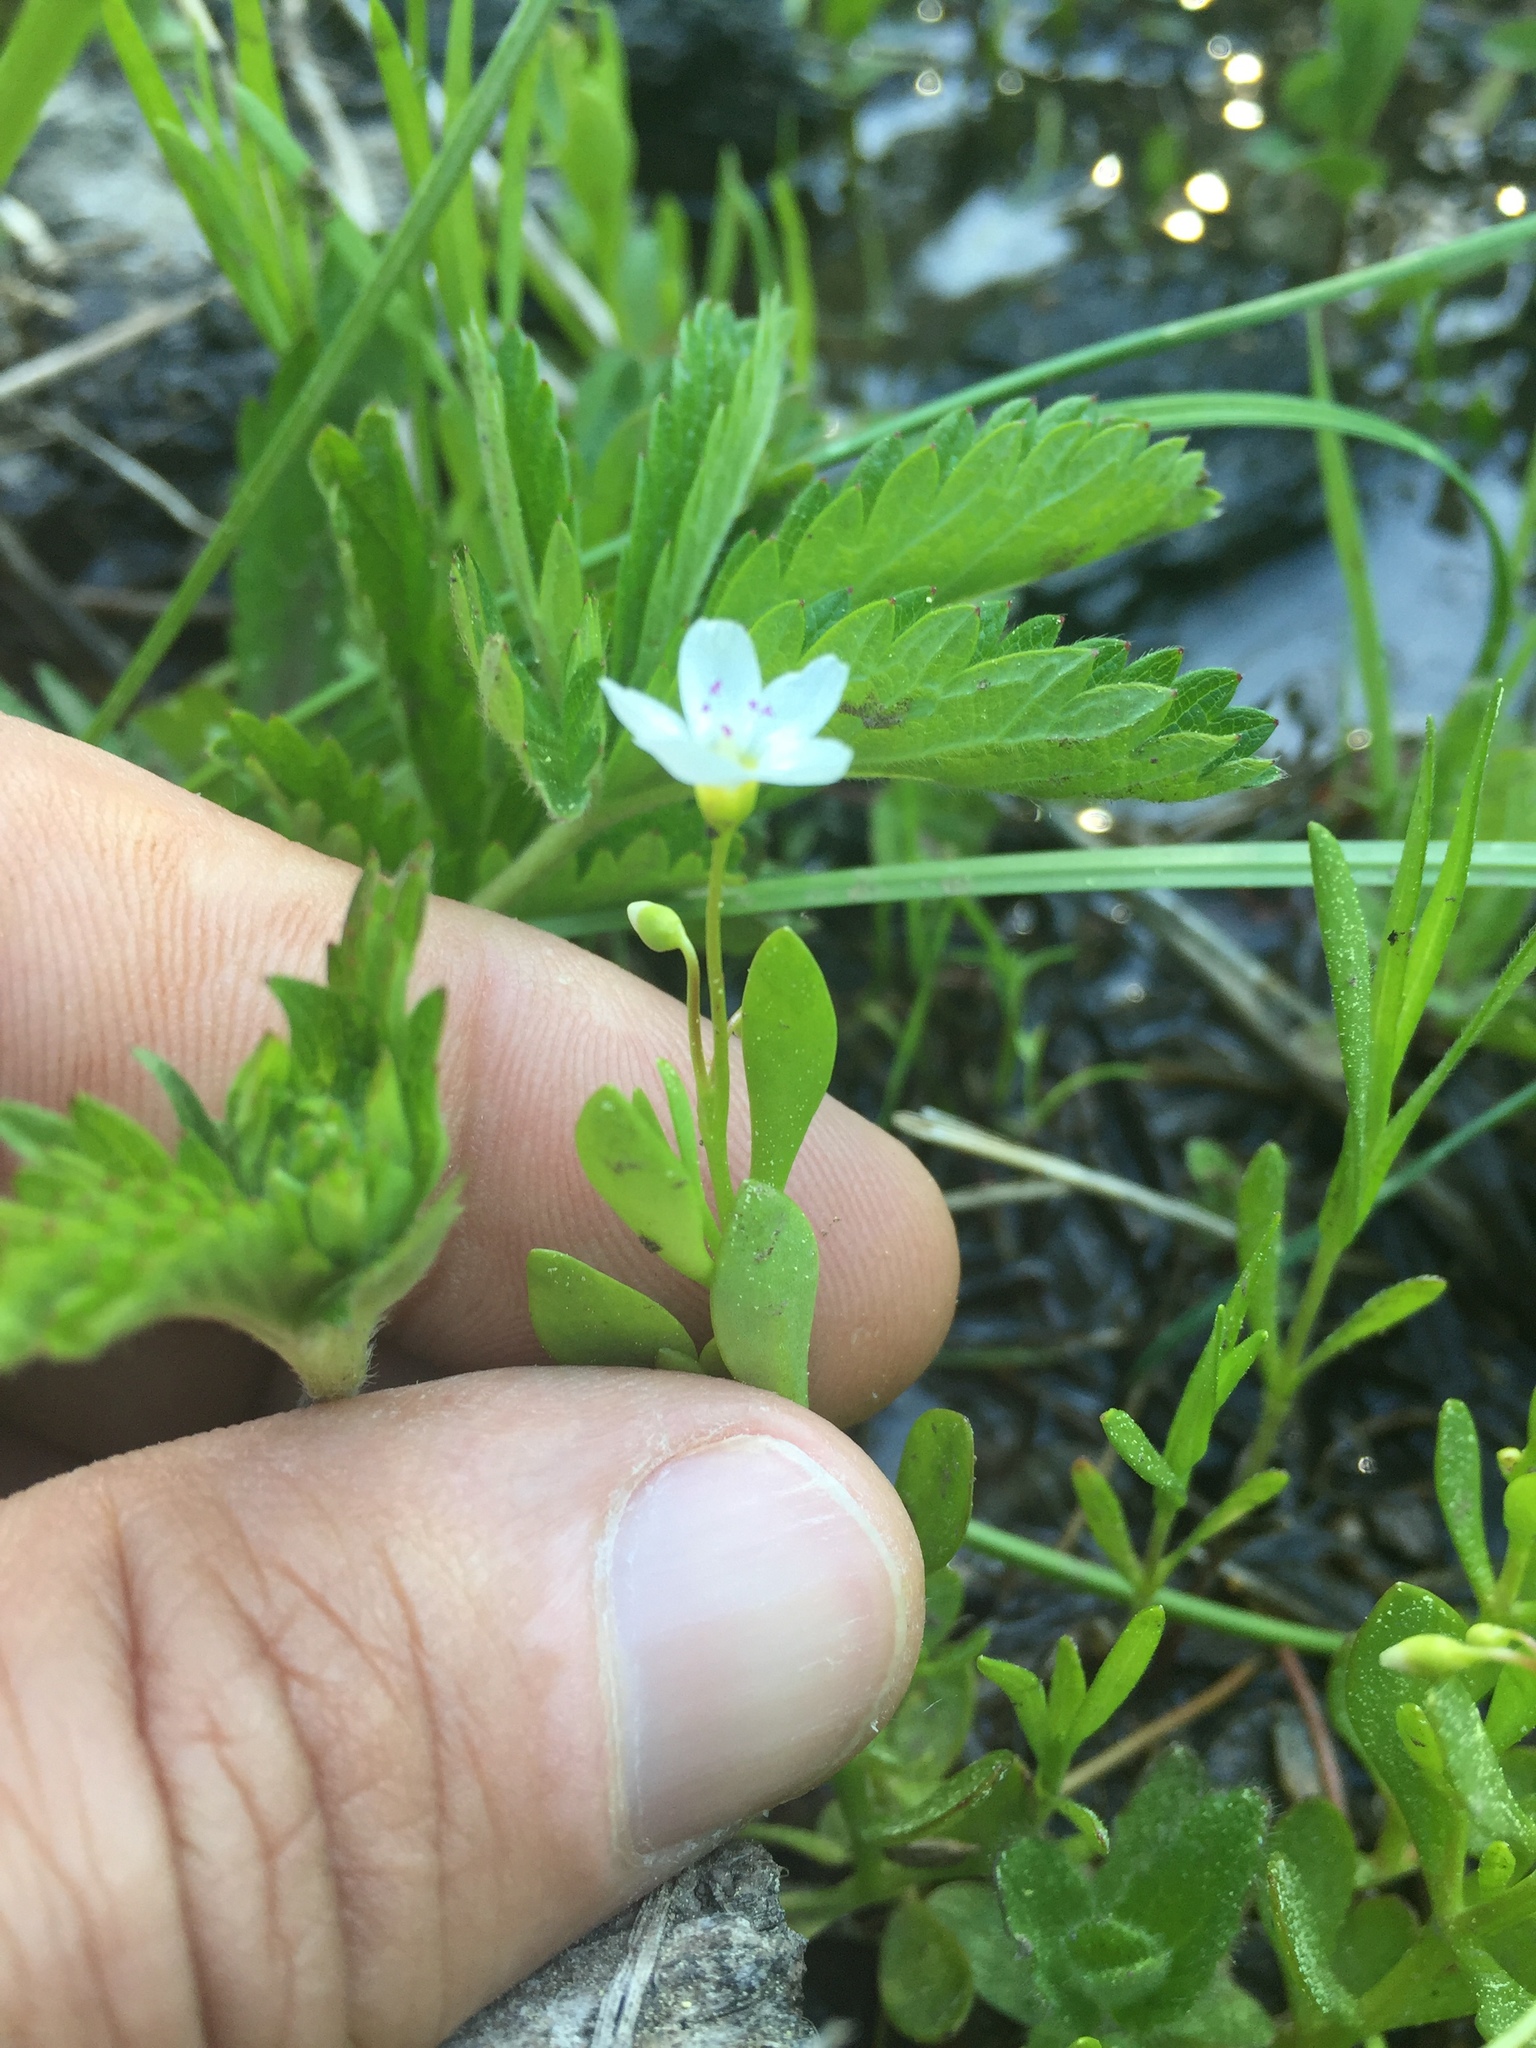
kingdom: Plantae
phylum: Tracheophyta
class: Magnoliopsida
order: Caryophyllales
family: Montiaceae
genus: Montia
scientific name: Montia chamissoi
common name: Chamisso's candyflower
